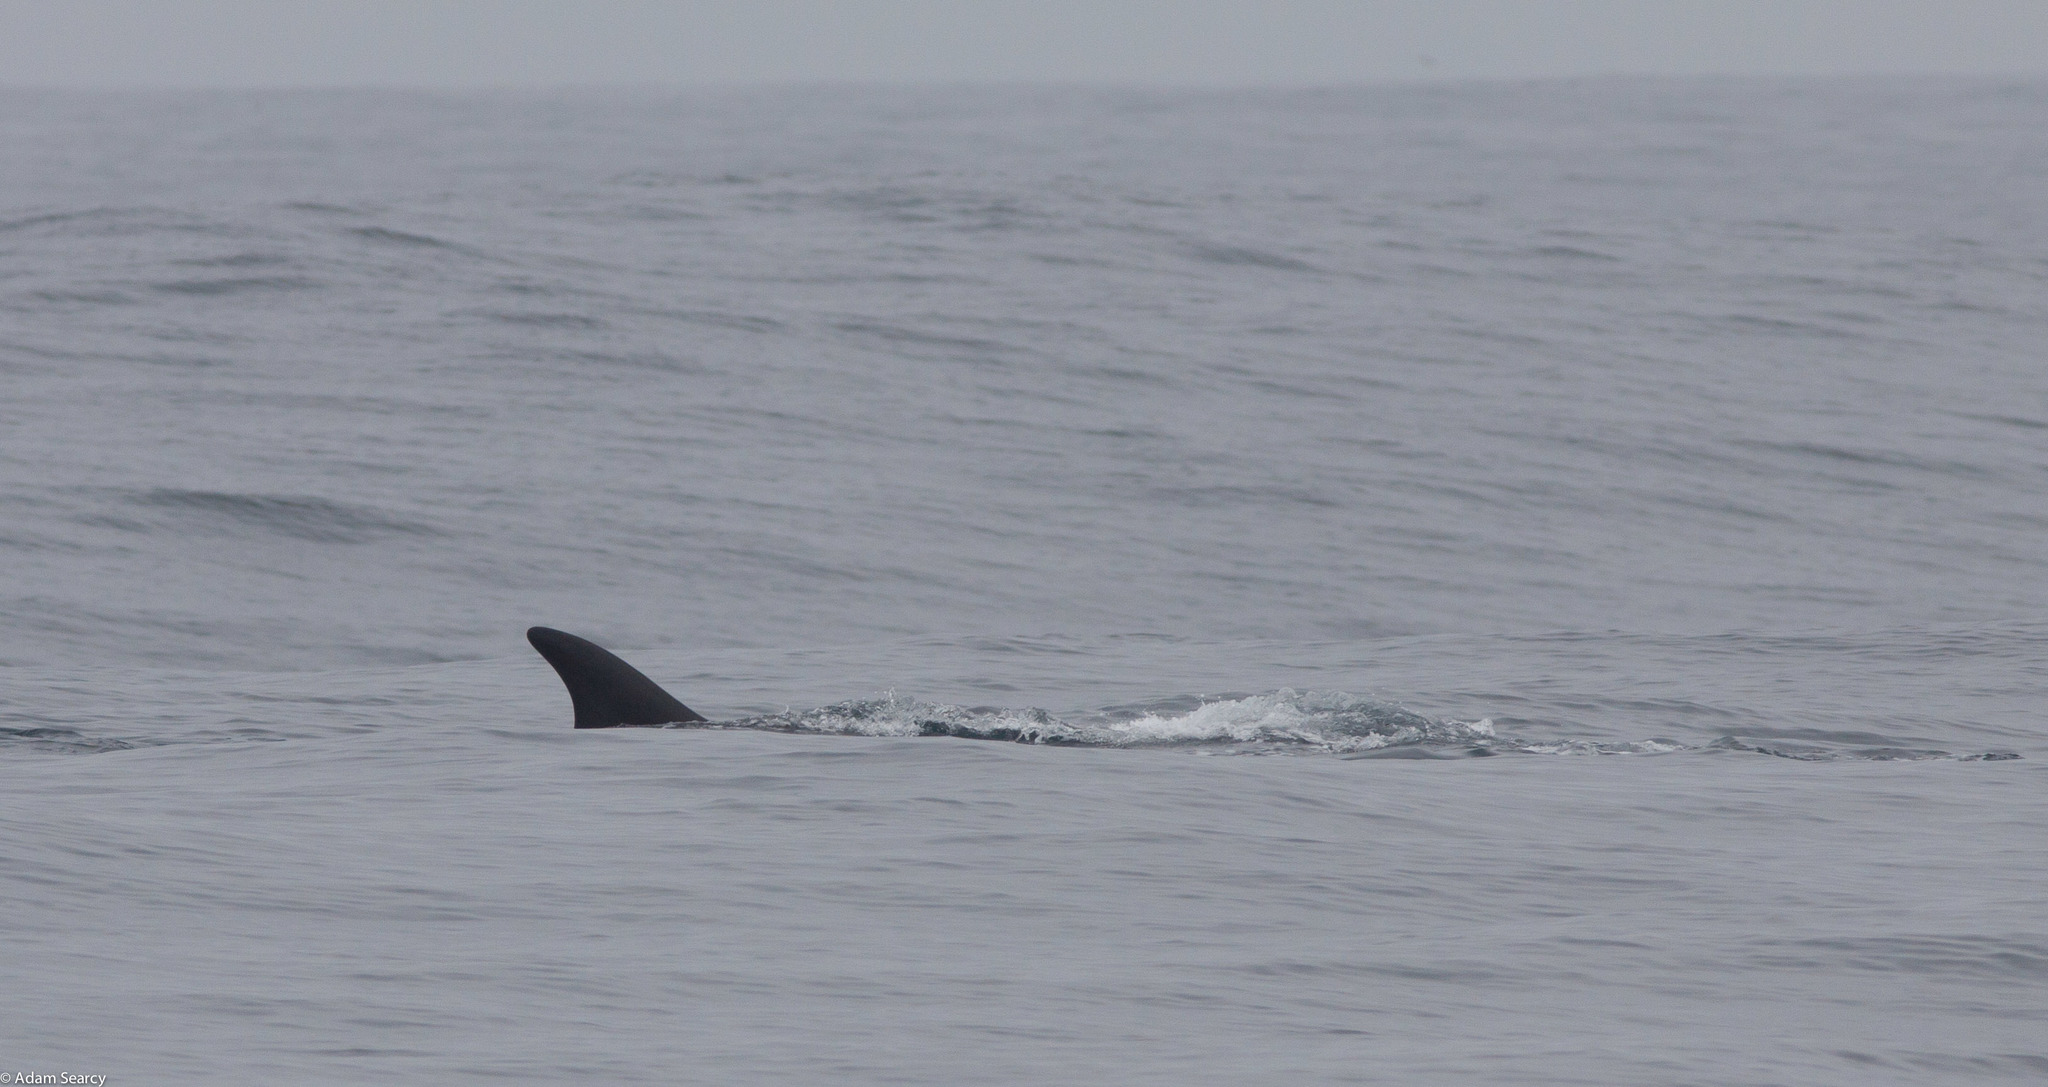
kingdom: Animalia
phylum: Chordata
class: Mammalia
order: Cetacea
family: Balaenopteridae
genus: Balaenoptera
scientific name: Balaenoptera physalus
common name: Fin whale
